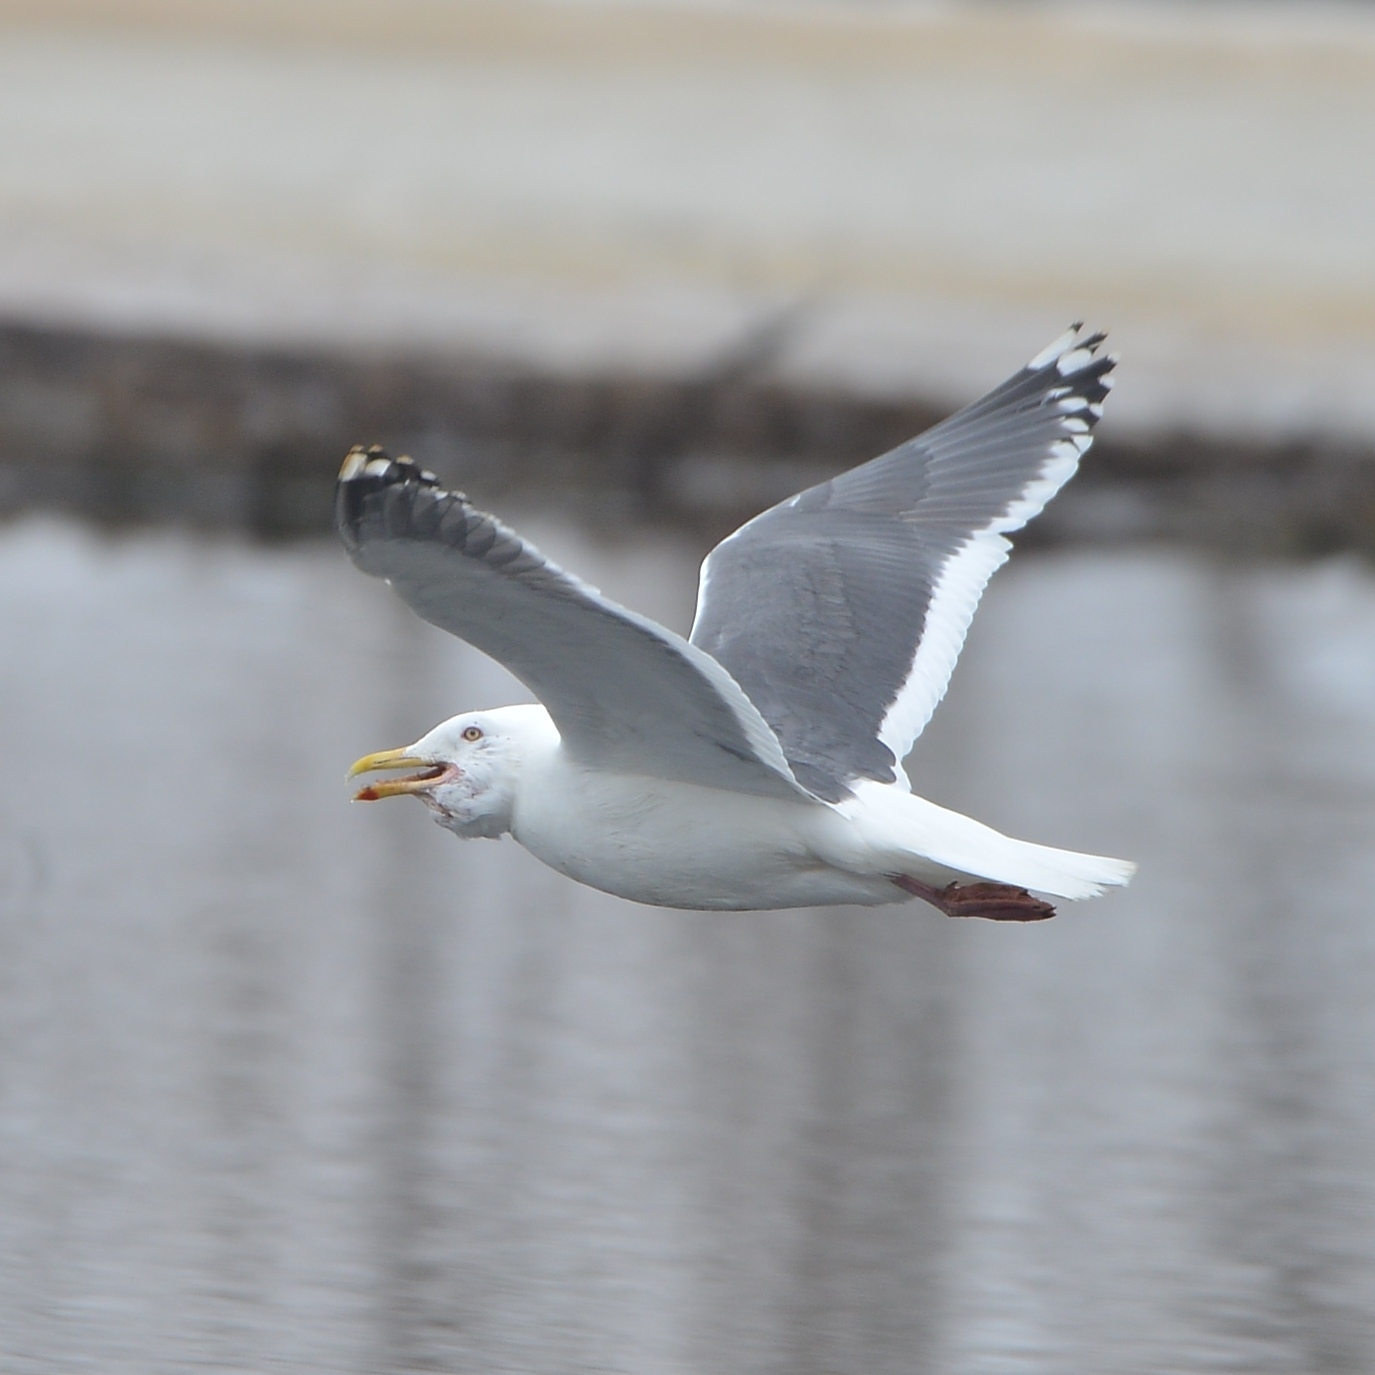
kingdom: Animalia
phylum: Chordata
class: Aves
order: Charadriiformes
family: Laridae
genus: Larus
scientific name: Larus schistisagus
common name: Slaty-backed gull
